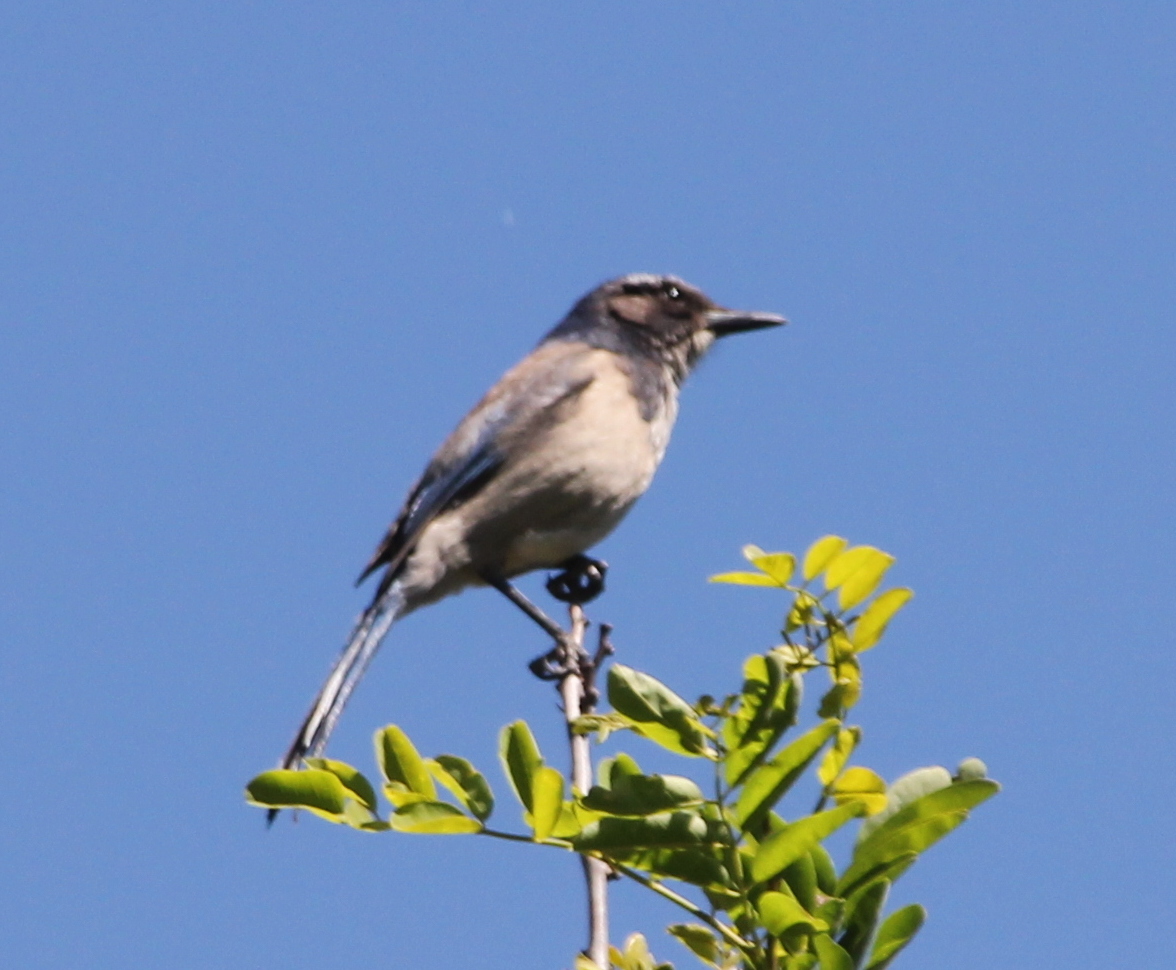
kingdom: Animalia
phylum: Chordata
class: Aves
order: Passeriformes
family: Corvidae
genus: Aphelocoma
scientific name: Aphelocoma californica
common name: California scrub-jay
